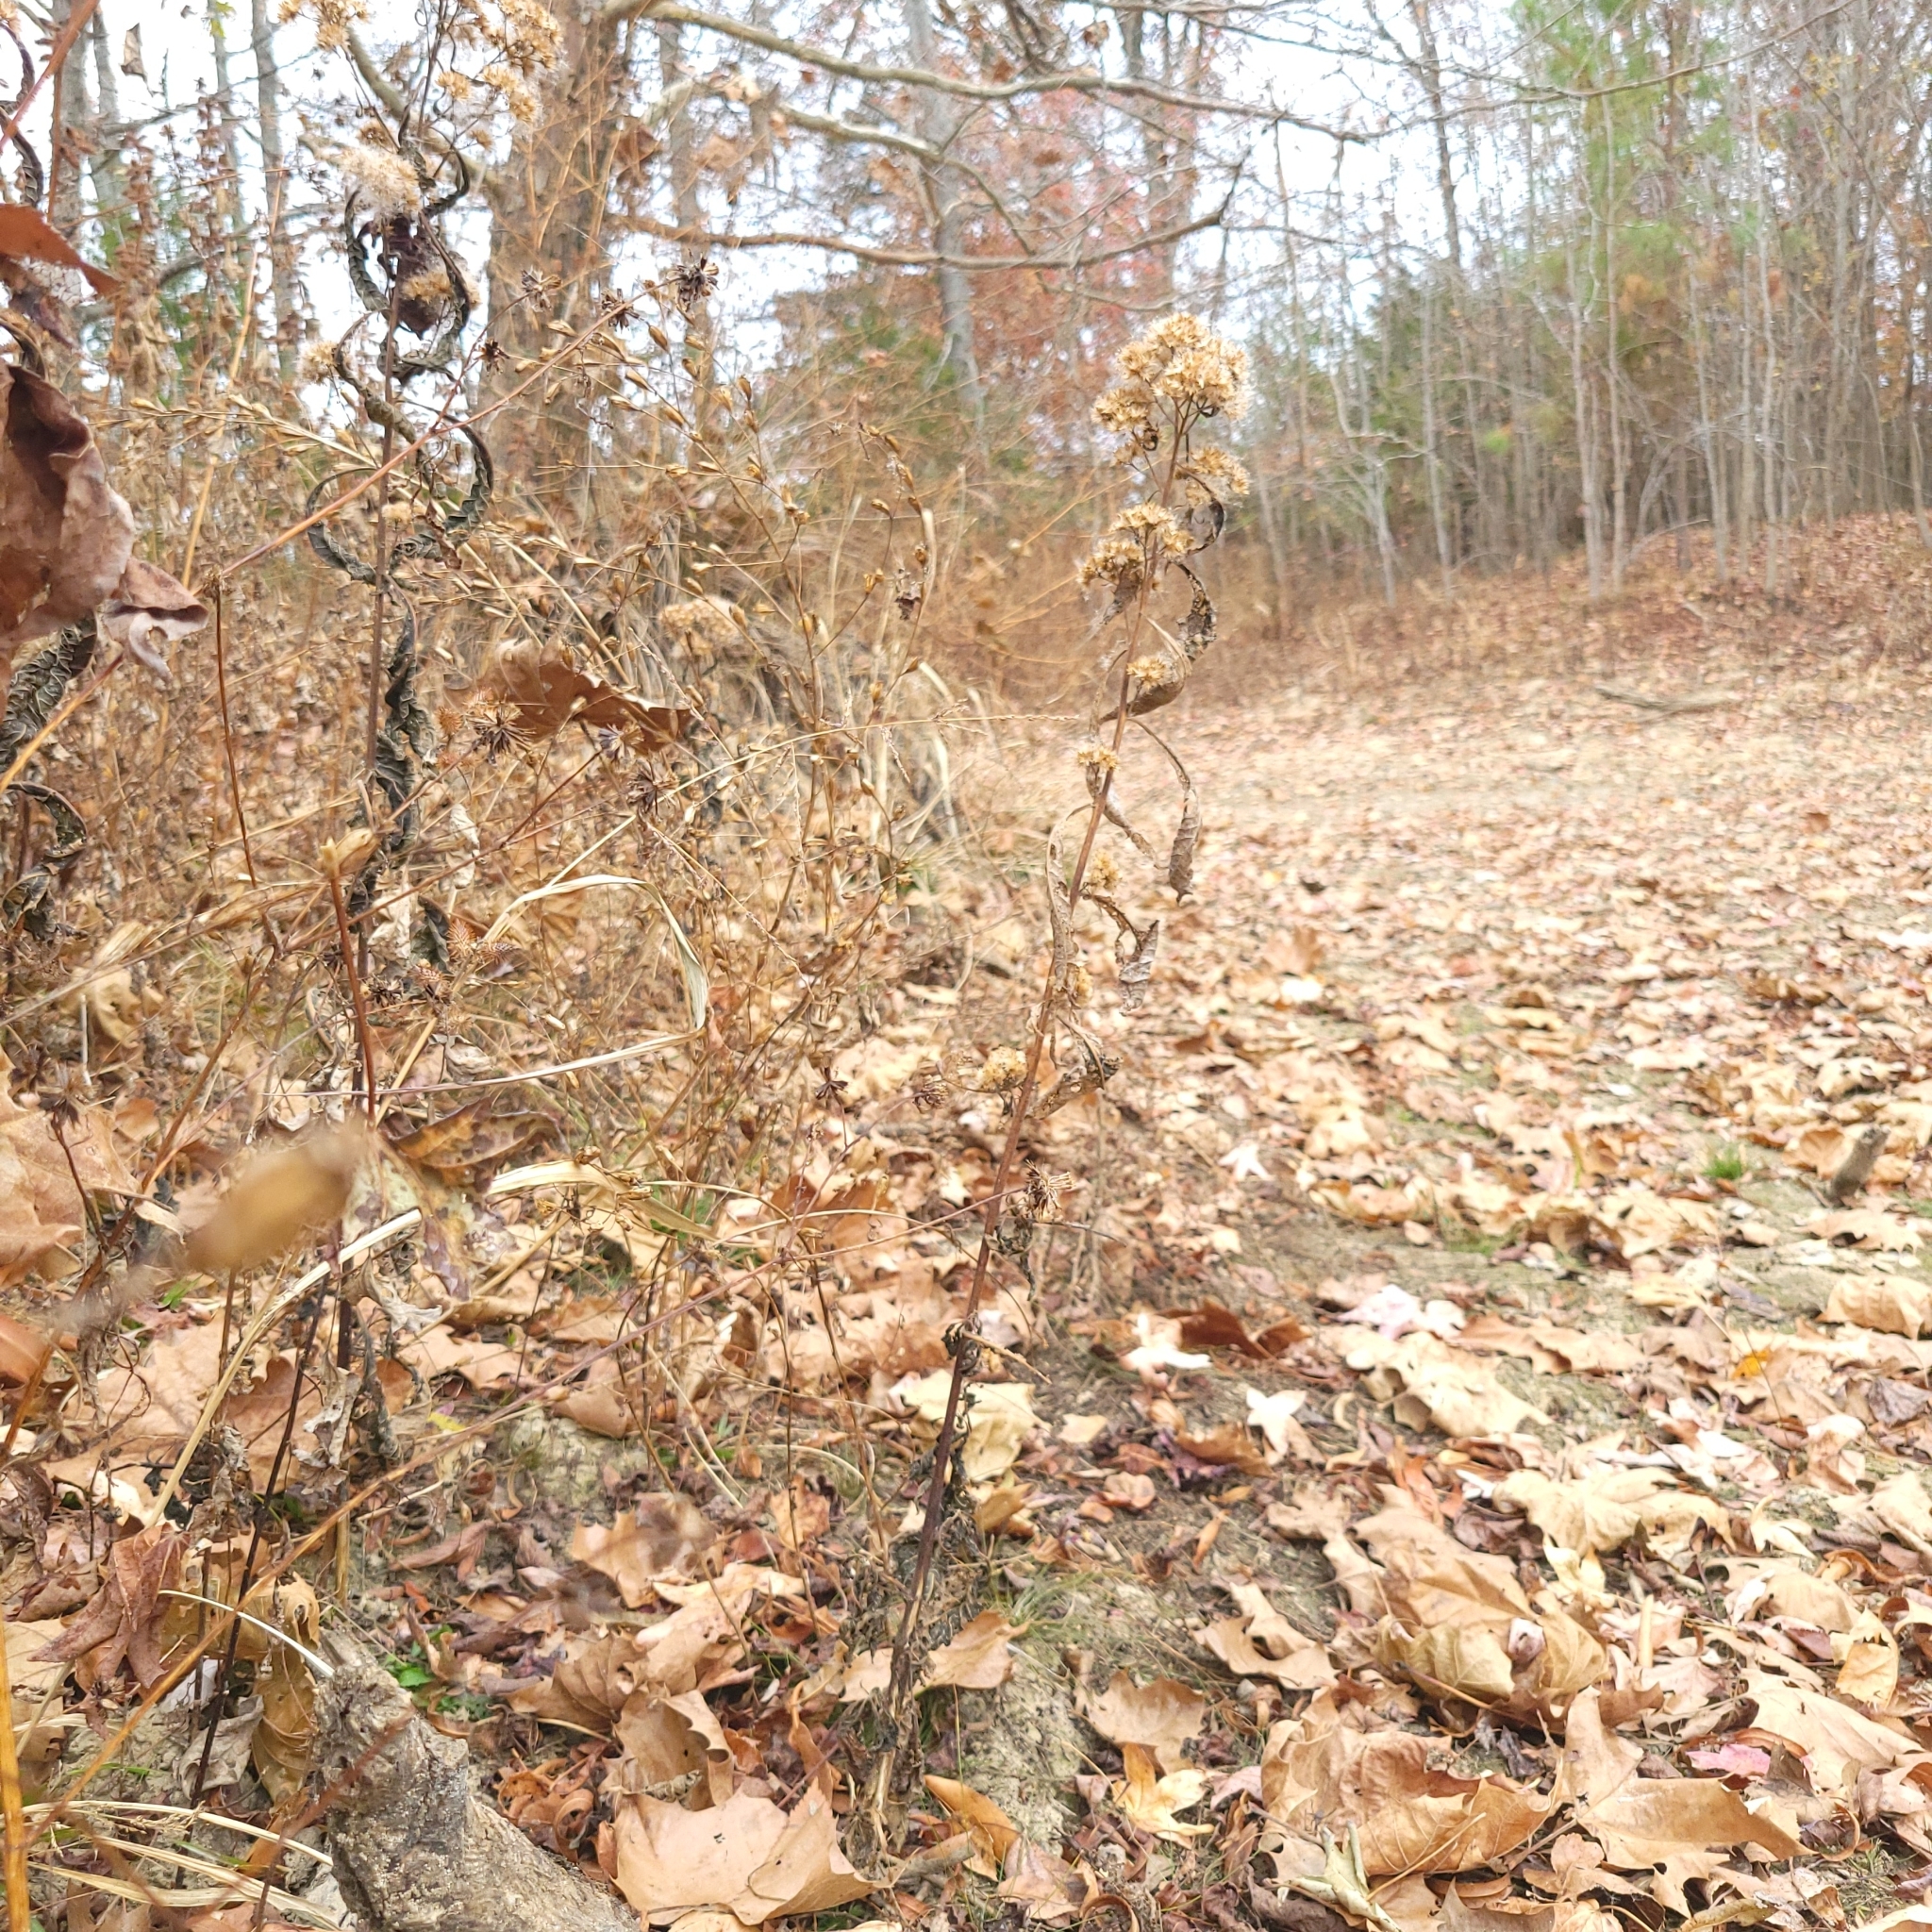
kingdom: Plantae
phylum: Tracheophyta
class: Magnoliopsida
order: Asterales
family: Asteraceae
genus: Pluchea
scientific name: Pluchea camphorata
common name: Camphor pluchea
